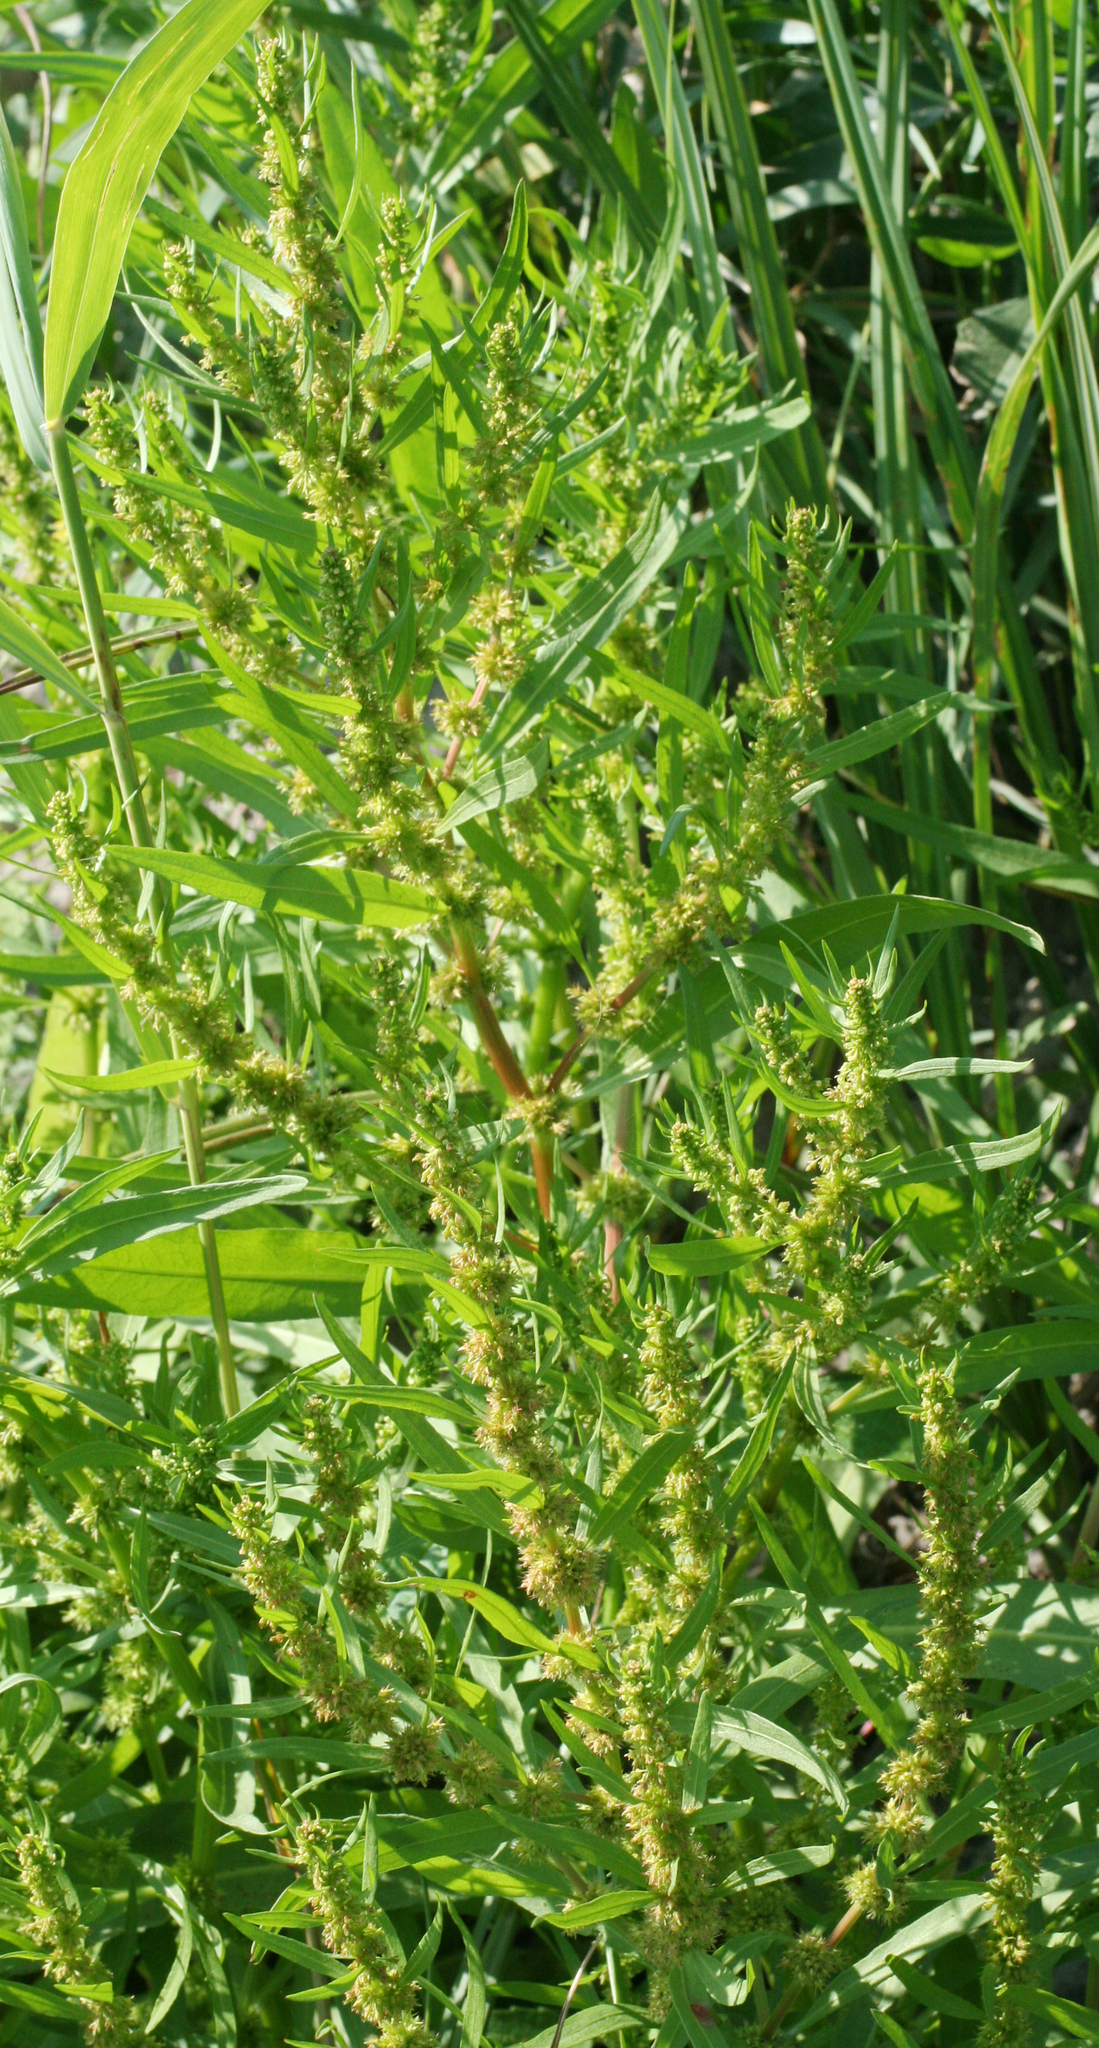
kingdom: Plantae
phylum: Tracheophyta
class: Magnoliopsida
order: Caryophyllales
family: Polygonaceae
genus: Rumex
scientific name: Rumex maritimus
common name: Golden dock
